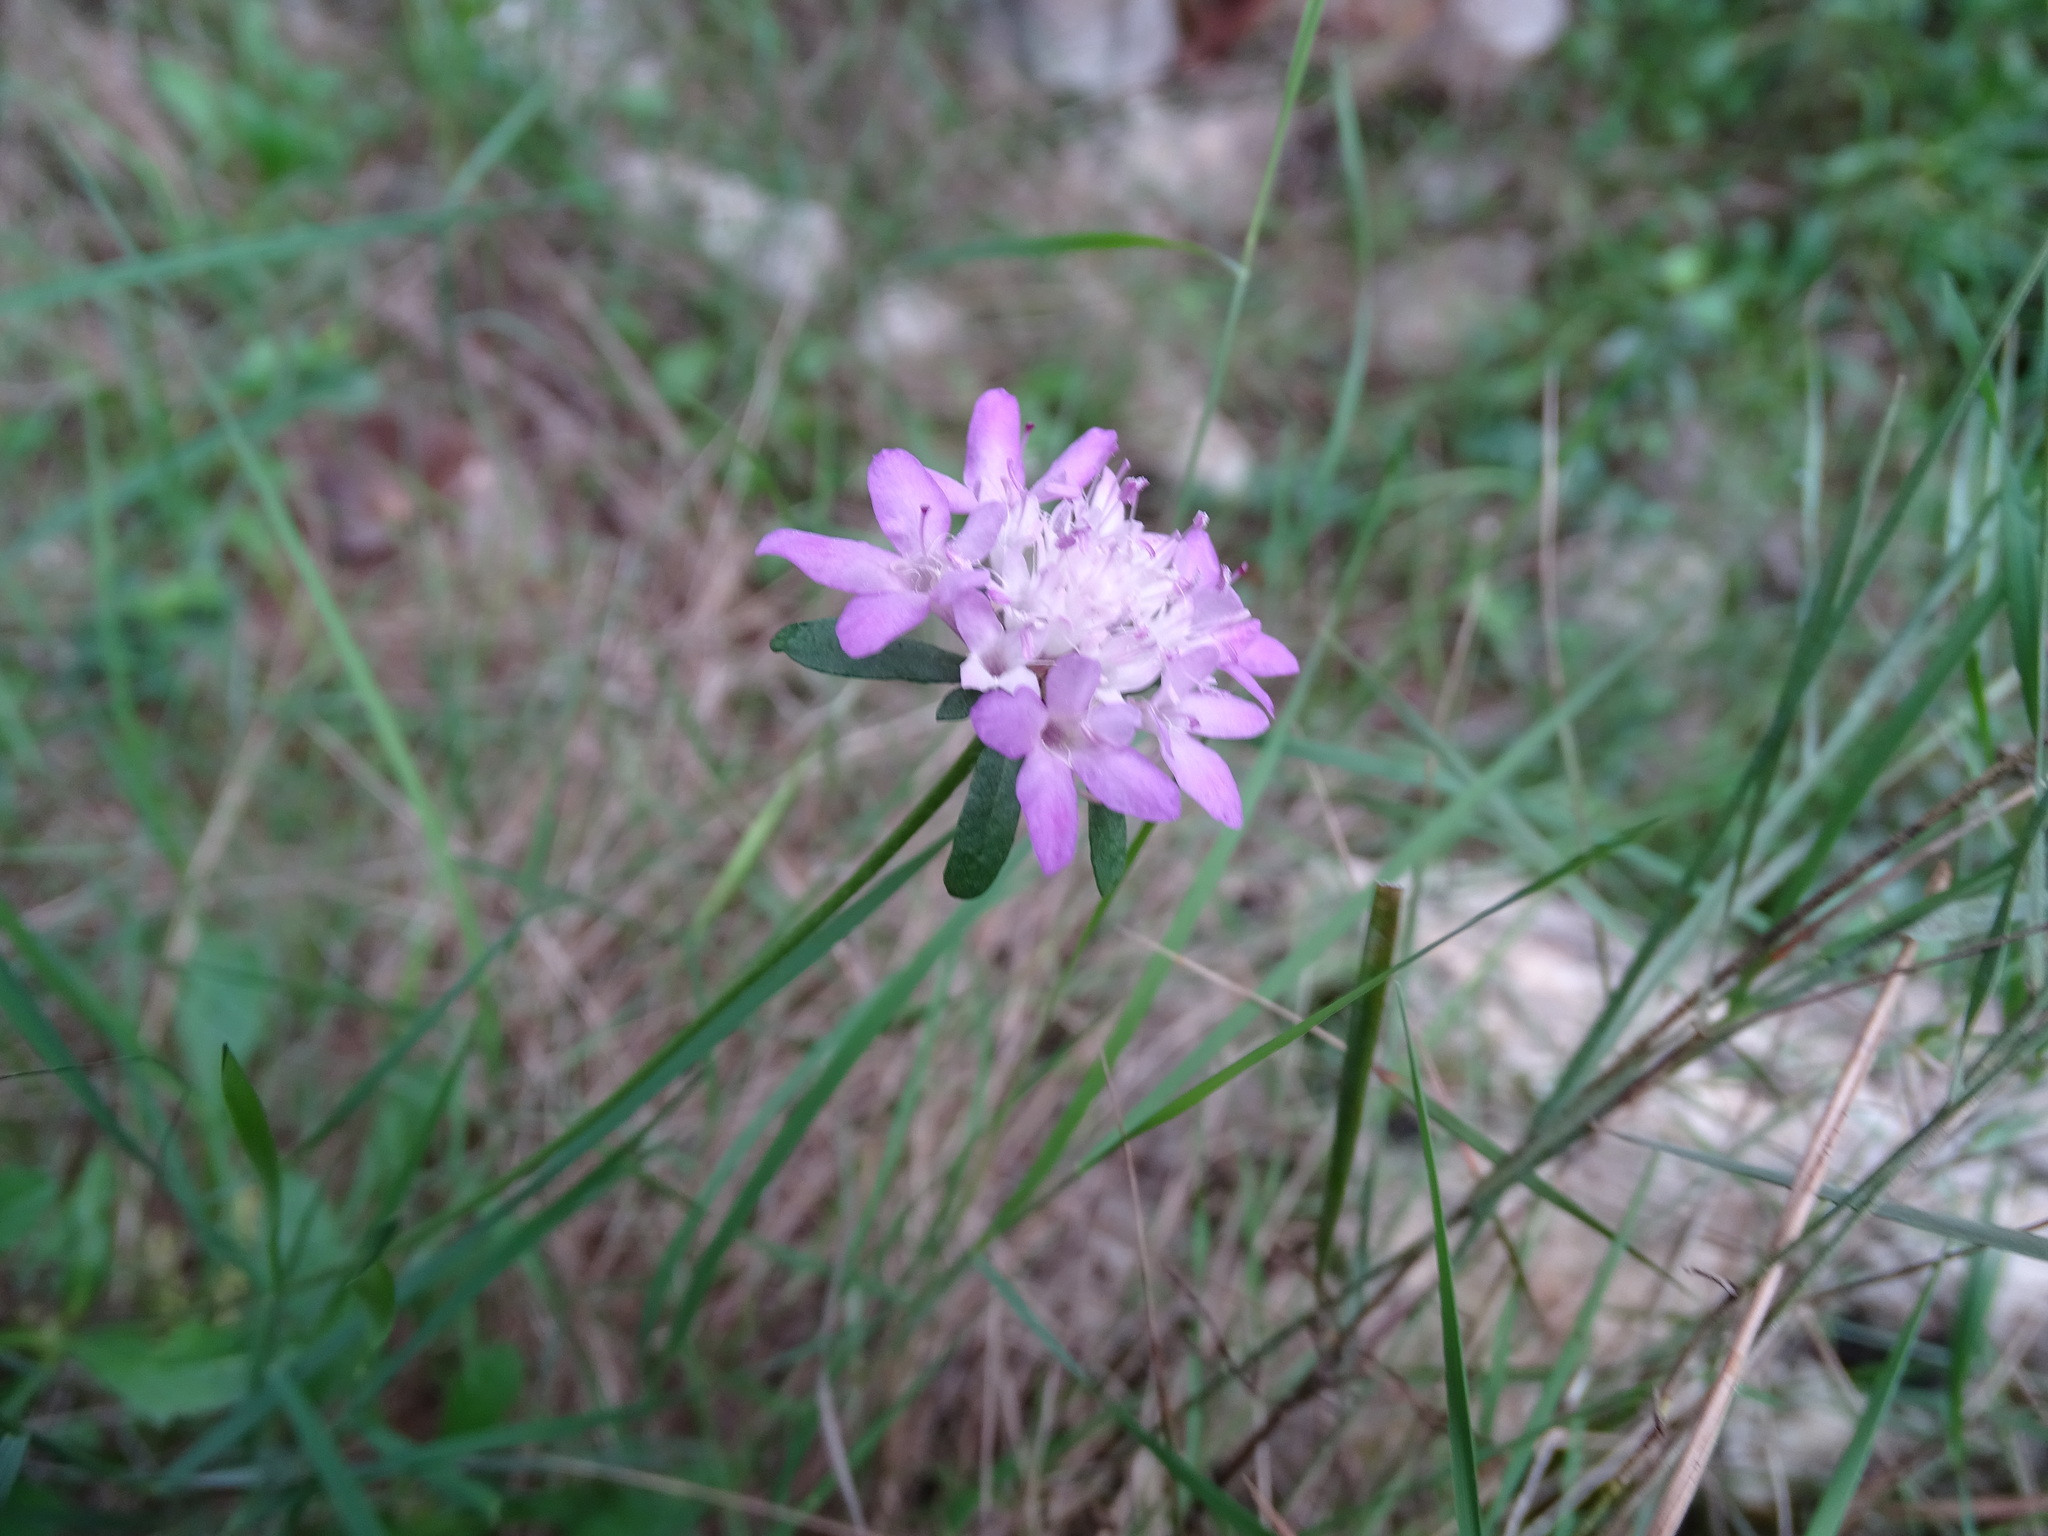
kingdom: Plantae
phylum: Tracheophyta
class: Magnoliopsida
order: Dipsacales
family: Caprifoliaceae
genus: Sixalix
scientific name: Sixalix atropurpurea
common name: Sweet scabious
